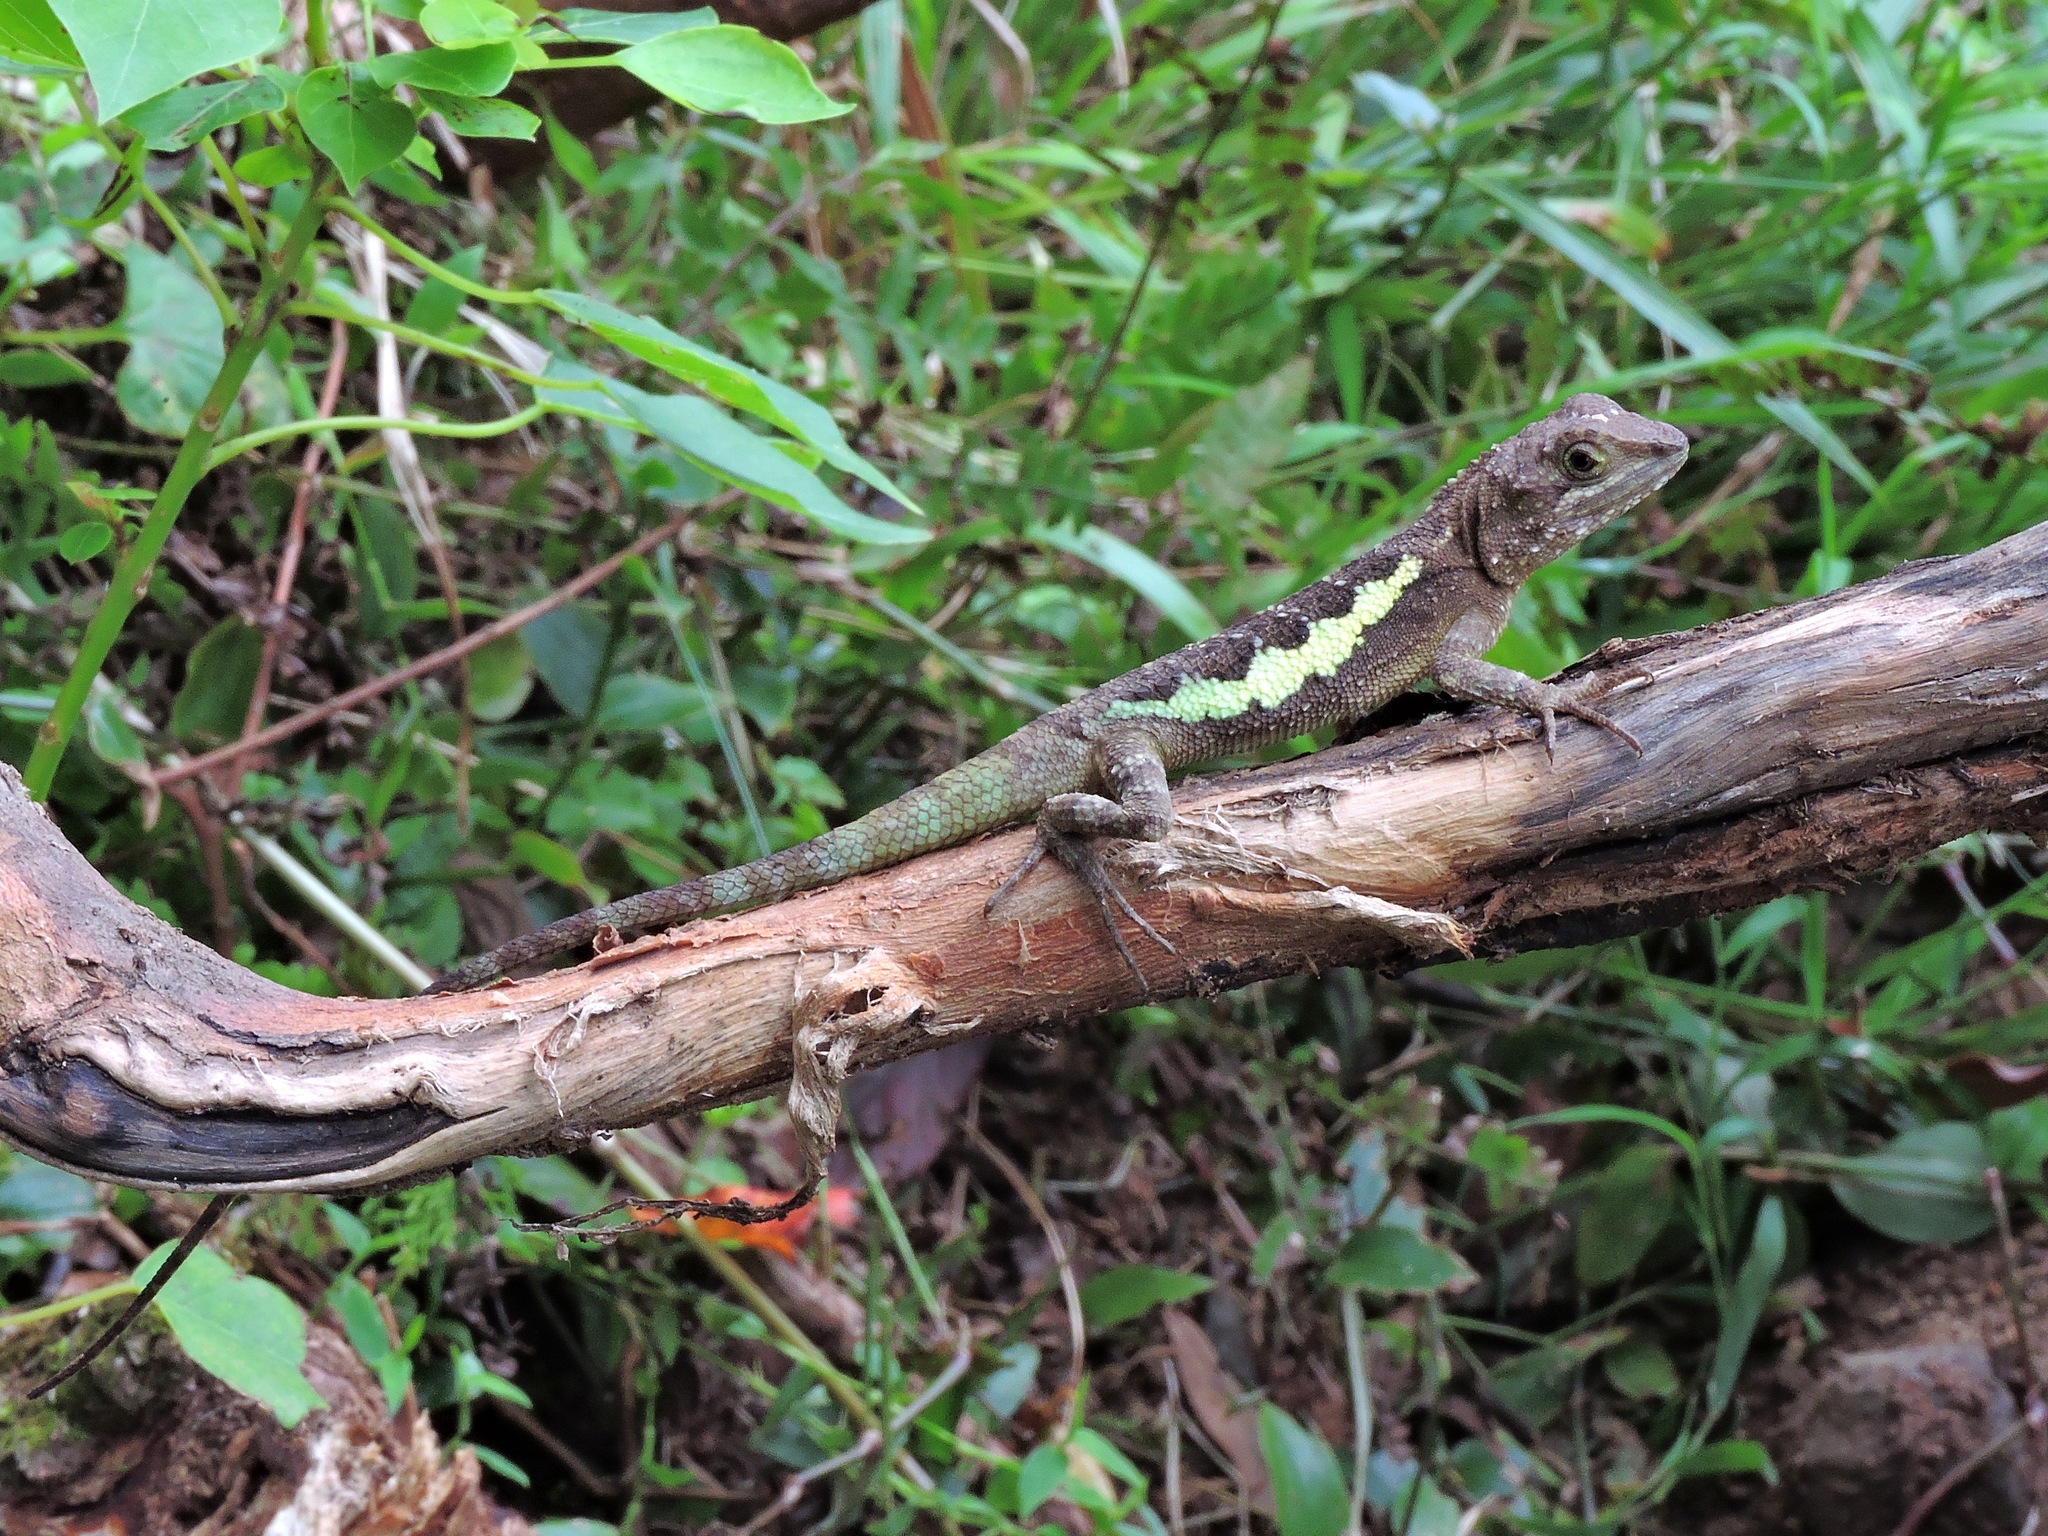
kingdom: Animalia
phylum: Chordata
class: Squamata
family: Agamidae
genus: Diploderma
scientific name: Diploderma swinhonis
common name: Taiwan japalure
